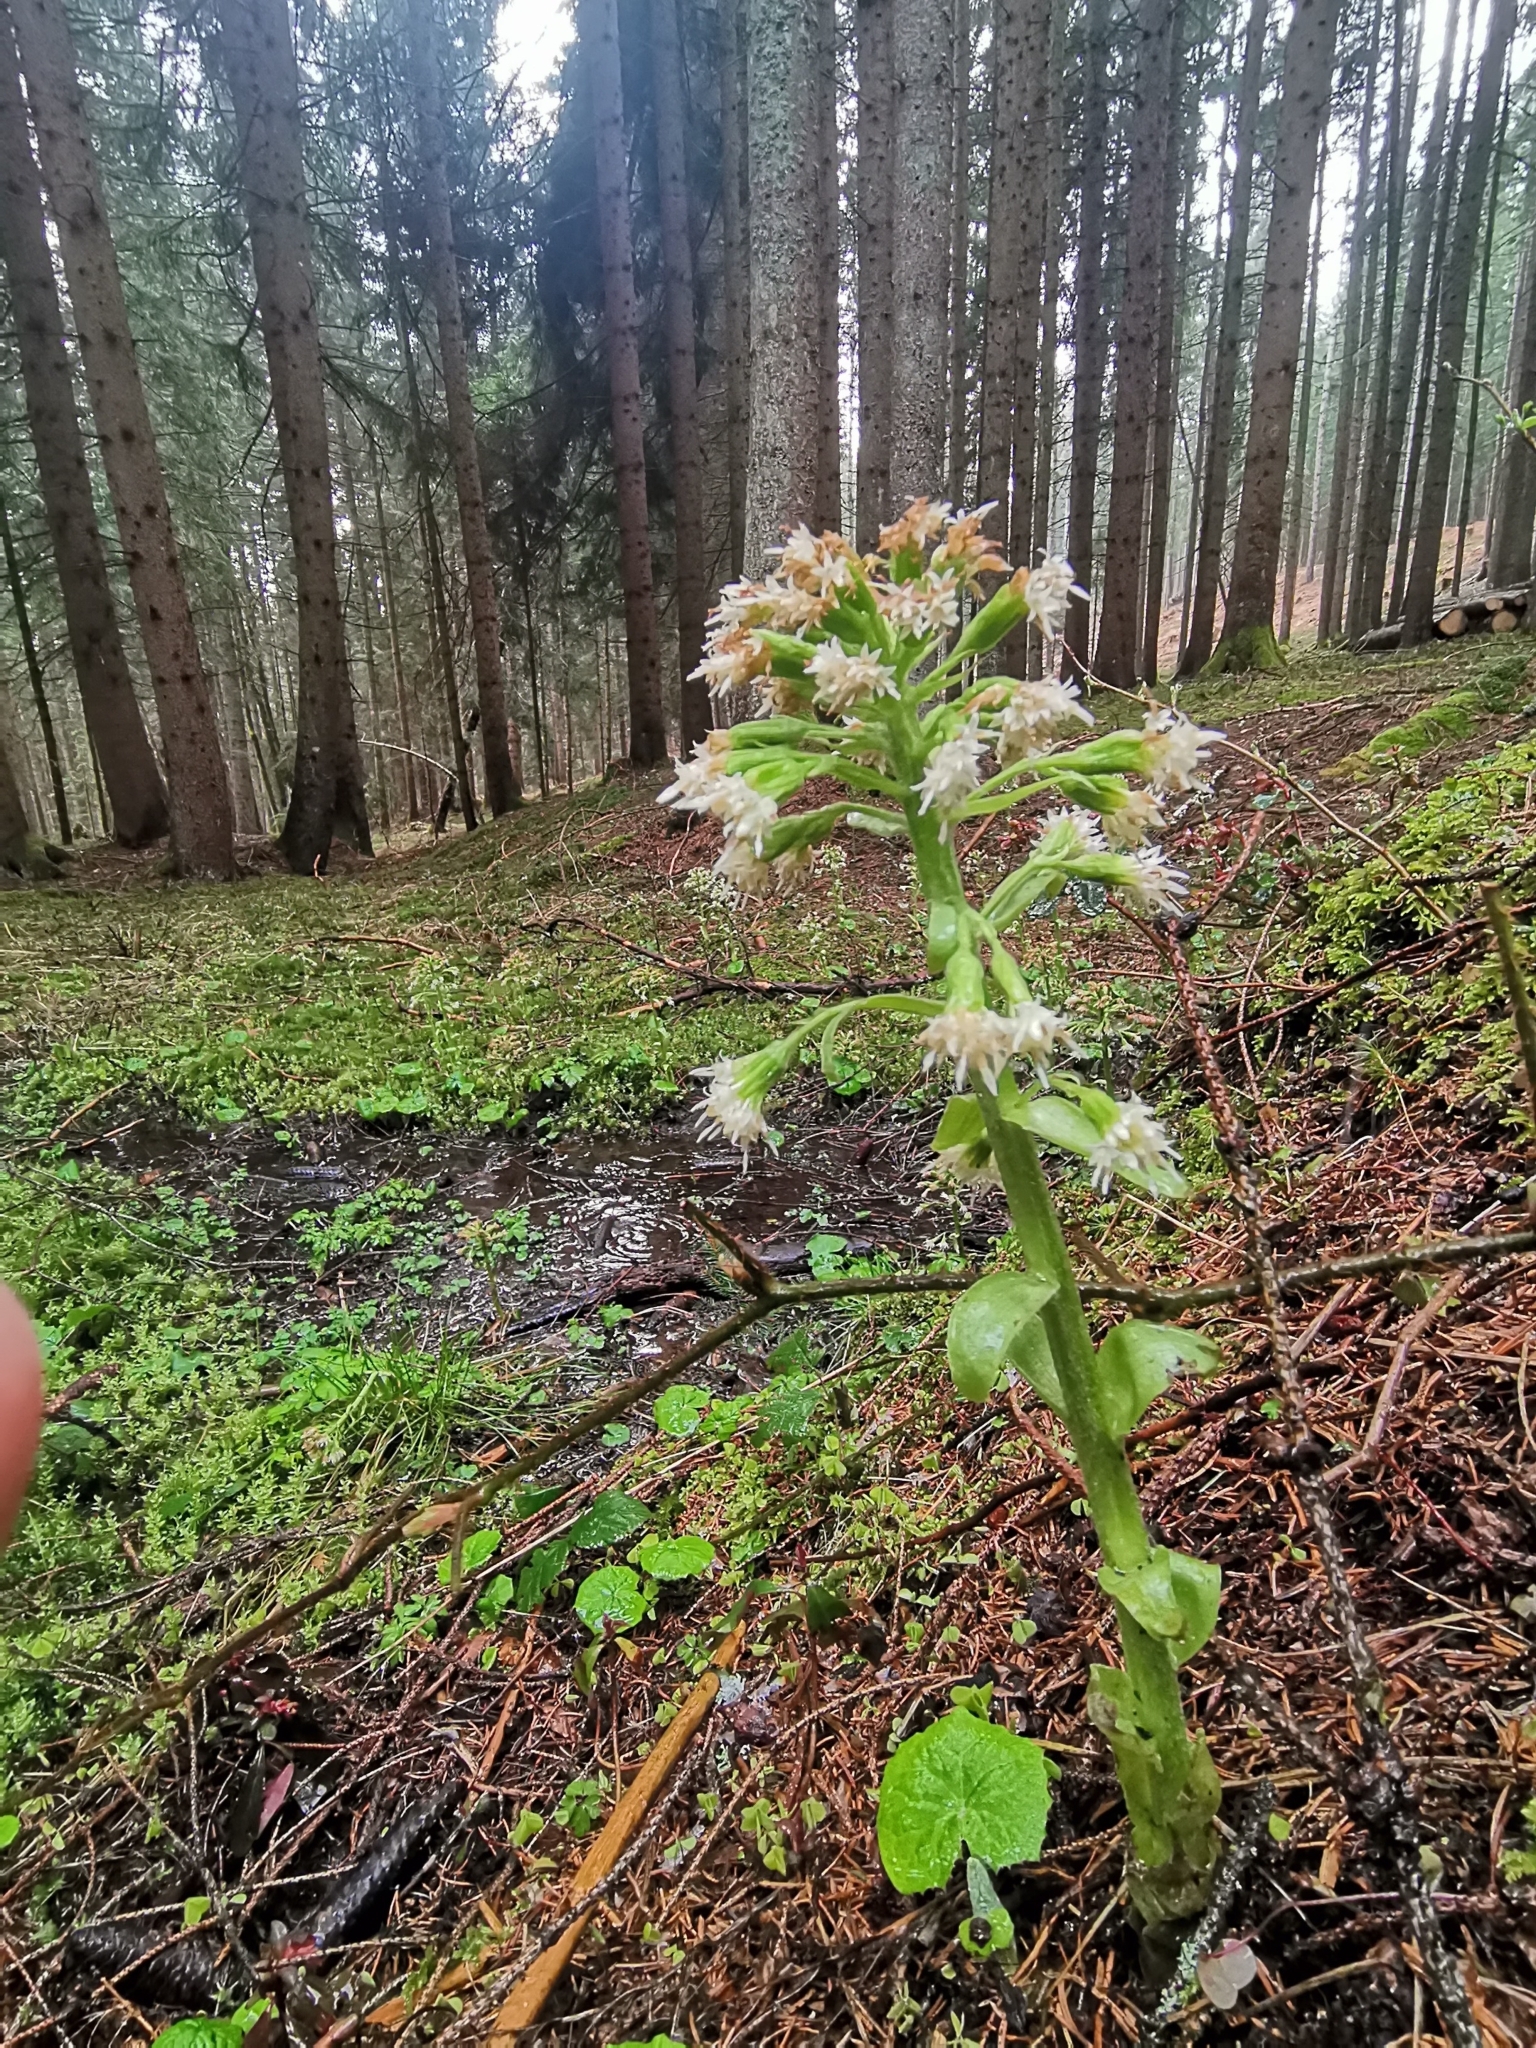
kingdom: Plantae
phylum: Tracheophyta
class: Magnoliopsida
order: Asterales
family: Asteraceae
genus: Petasites
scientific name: Petasites albus
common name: White butterbur
